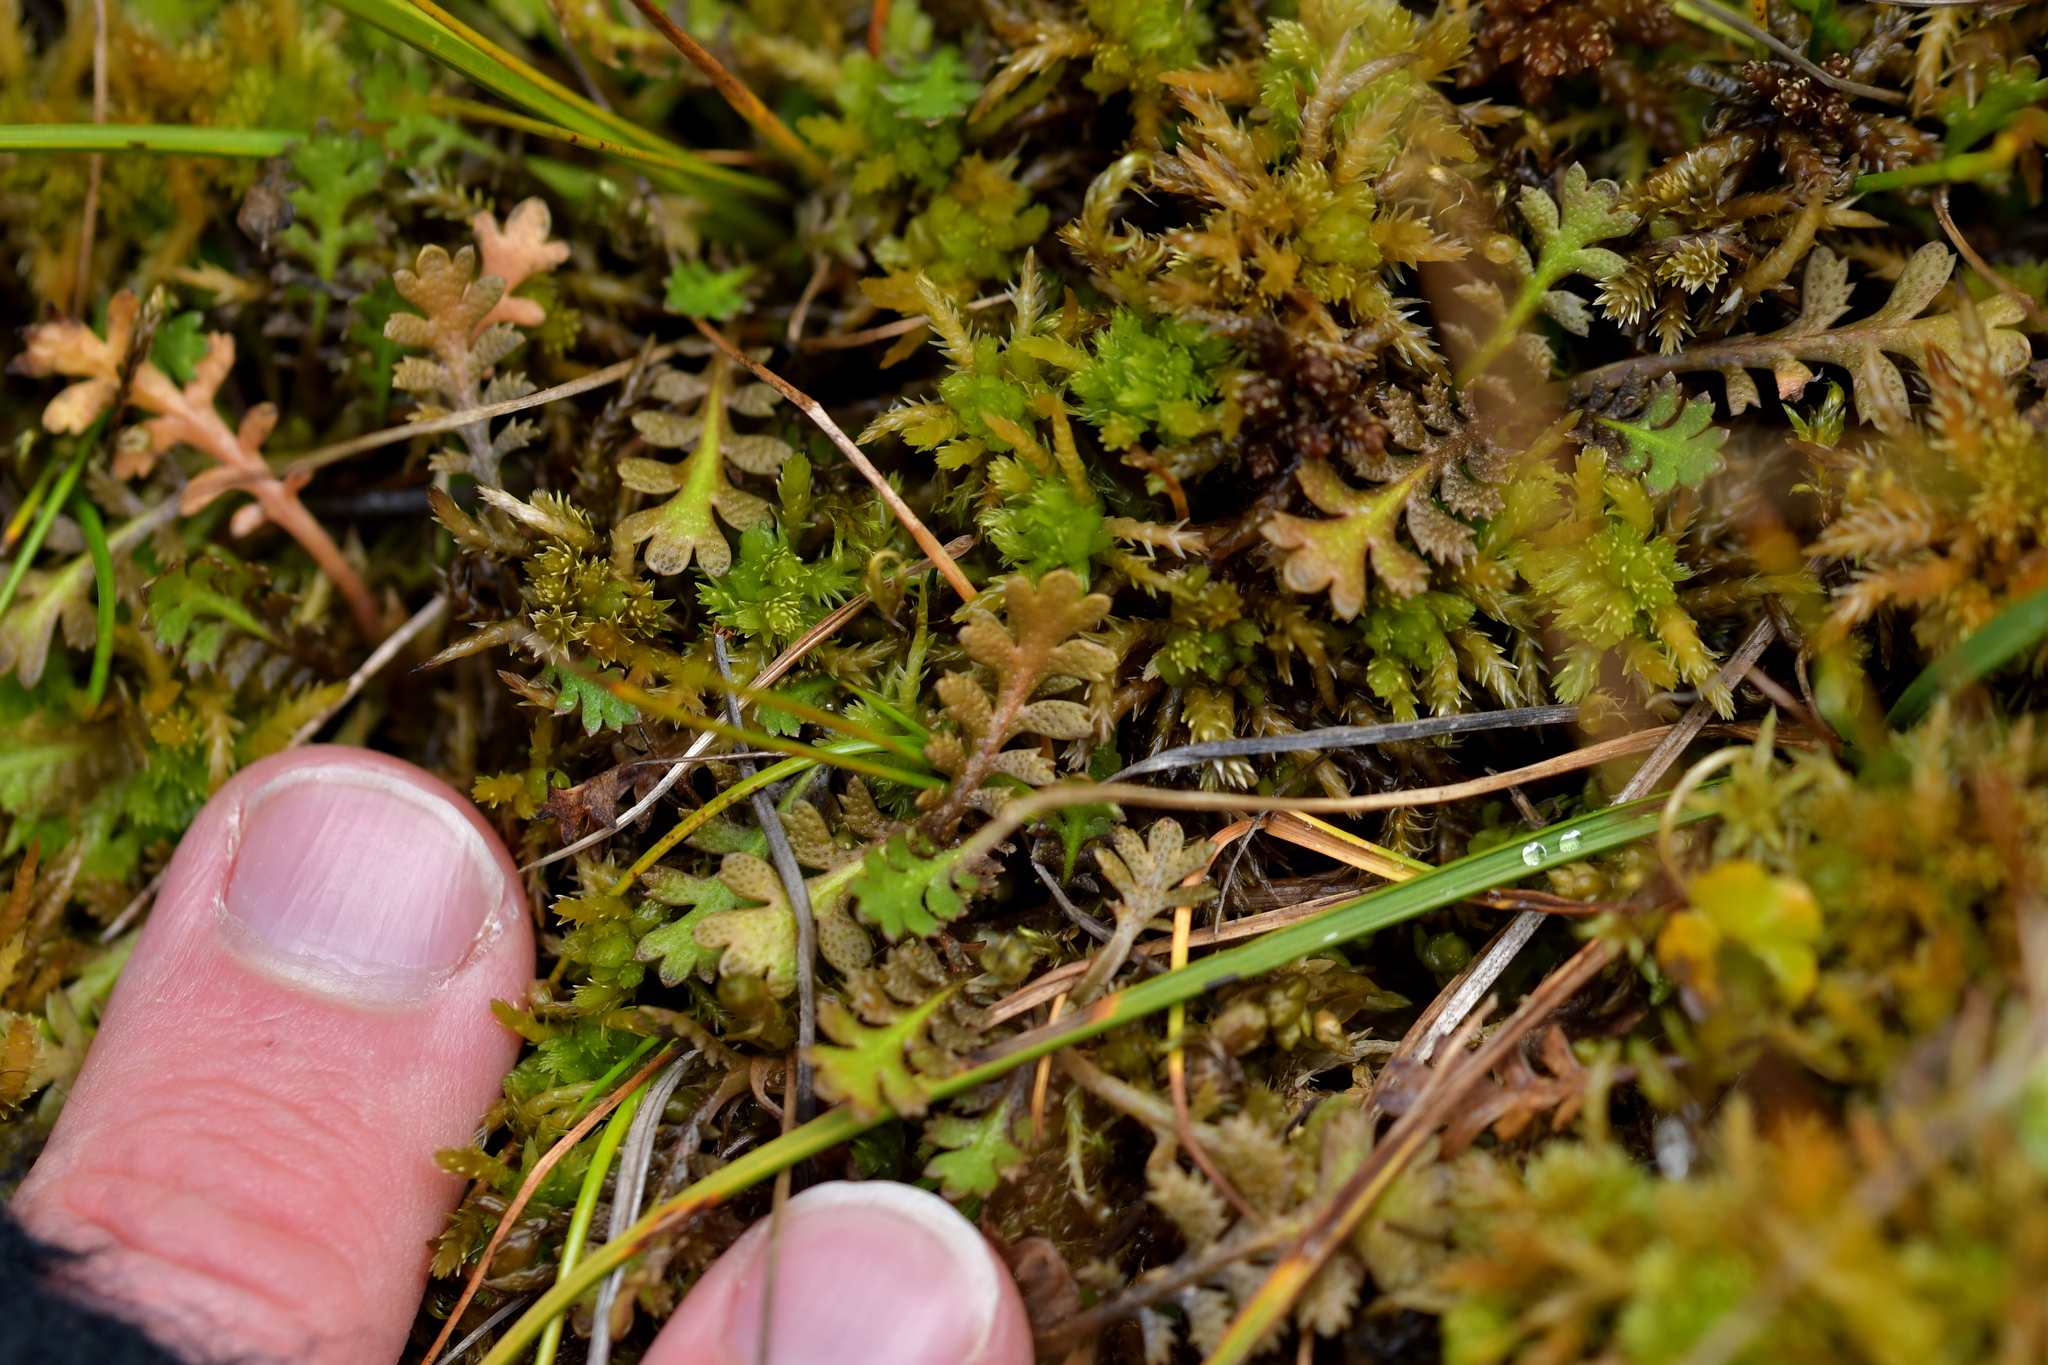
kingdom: Plantae
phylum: Tracheophyta
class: Magnoliopsida
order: Asterales
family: Asteraceae
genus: Leptinella
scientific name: Leptinella squalida
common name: New zealand brass-buttons
